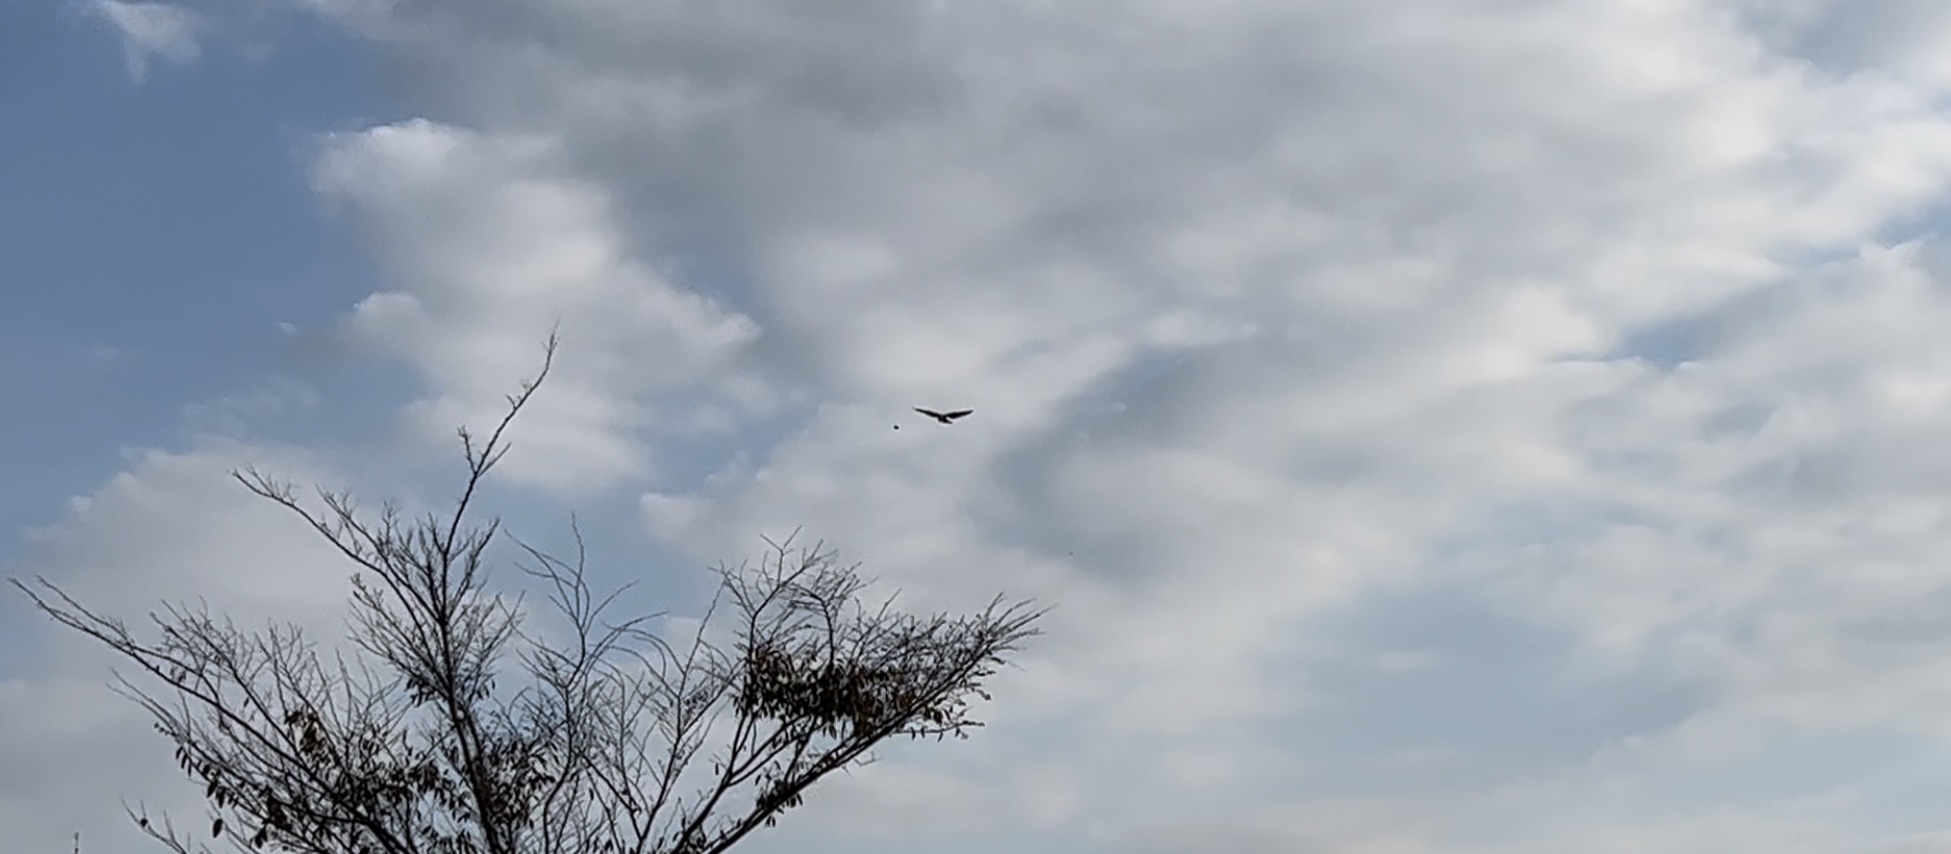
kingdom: Animalia
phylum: Chordata
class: Aves
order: Accipitriformes
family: Accipitridae
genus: Elanus
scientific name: Elanus caeruleus
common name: Black-winged kite
